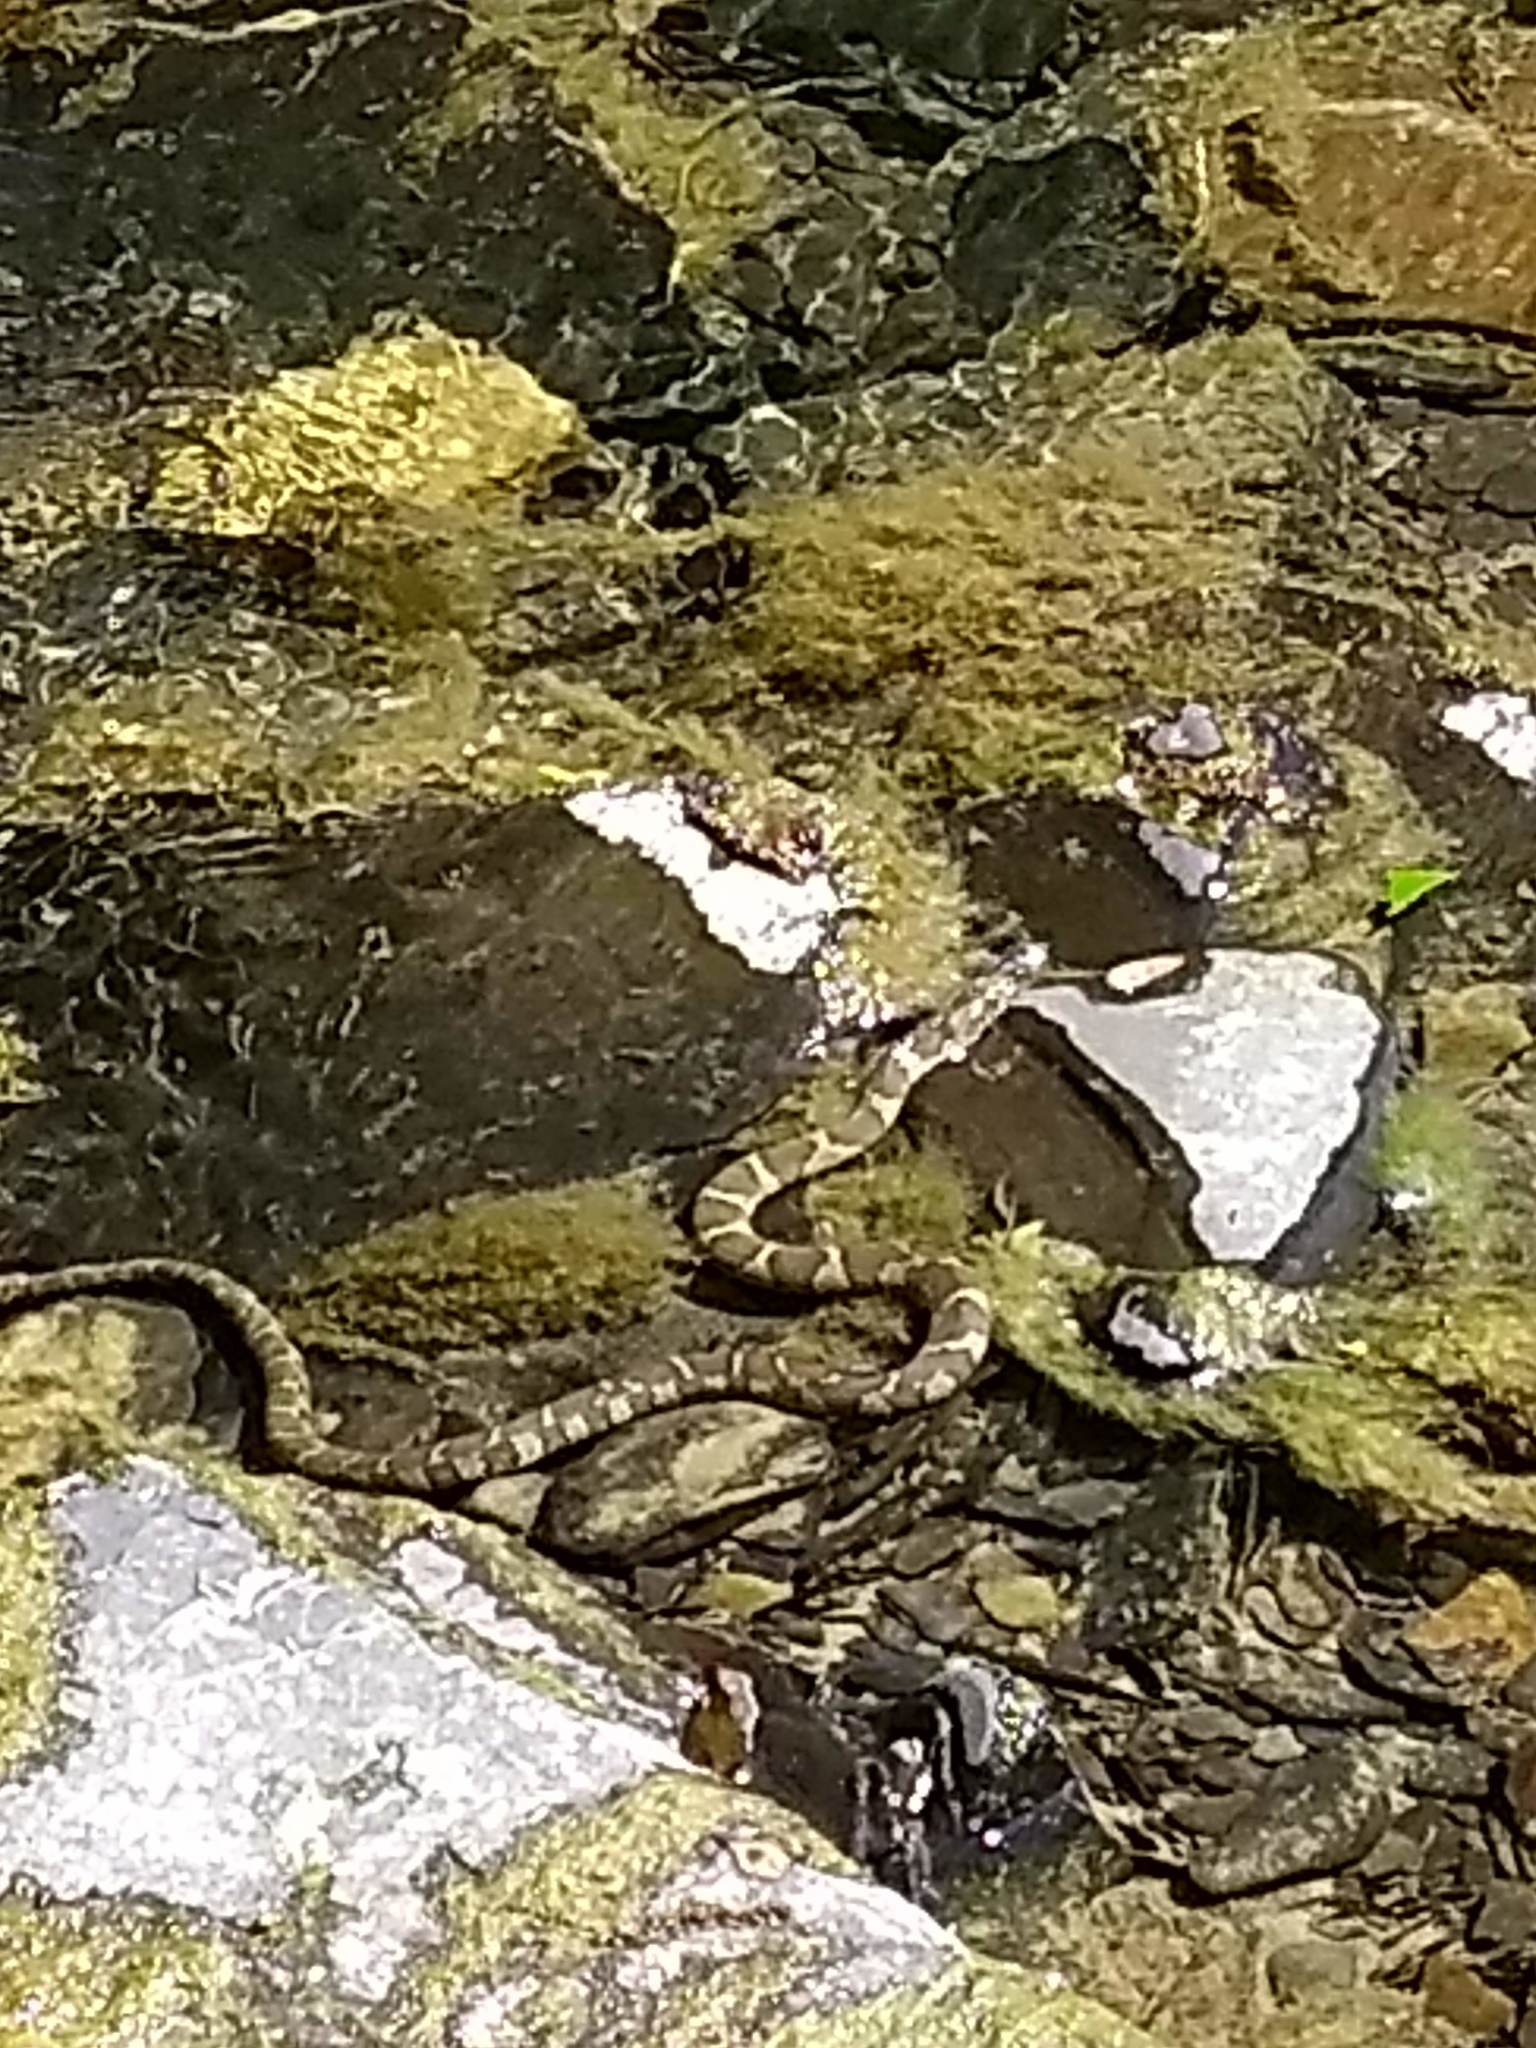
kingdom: Animalia
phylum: Chordata
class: Squamata
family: Colubridae
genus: Nerodia
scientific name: Nerodia sipedon
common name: Northern water snake
